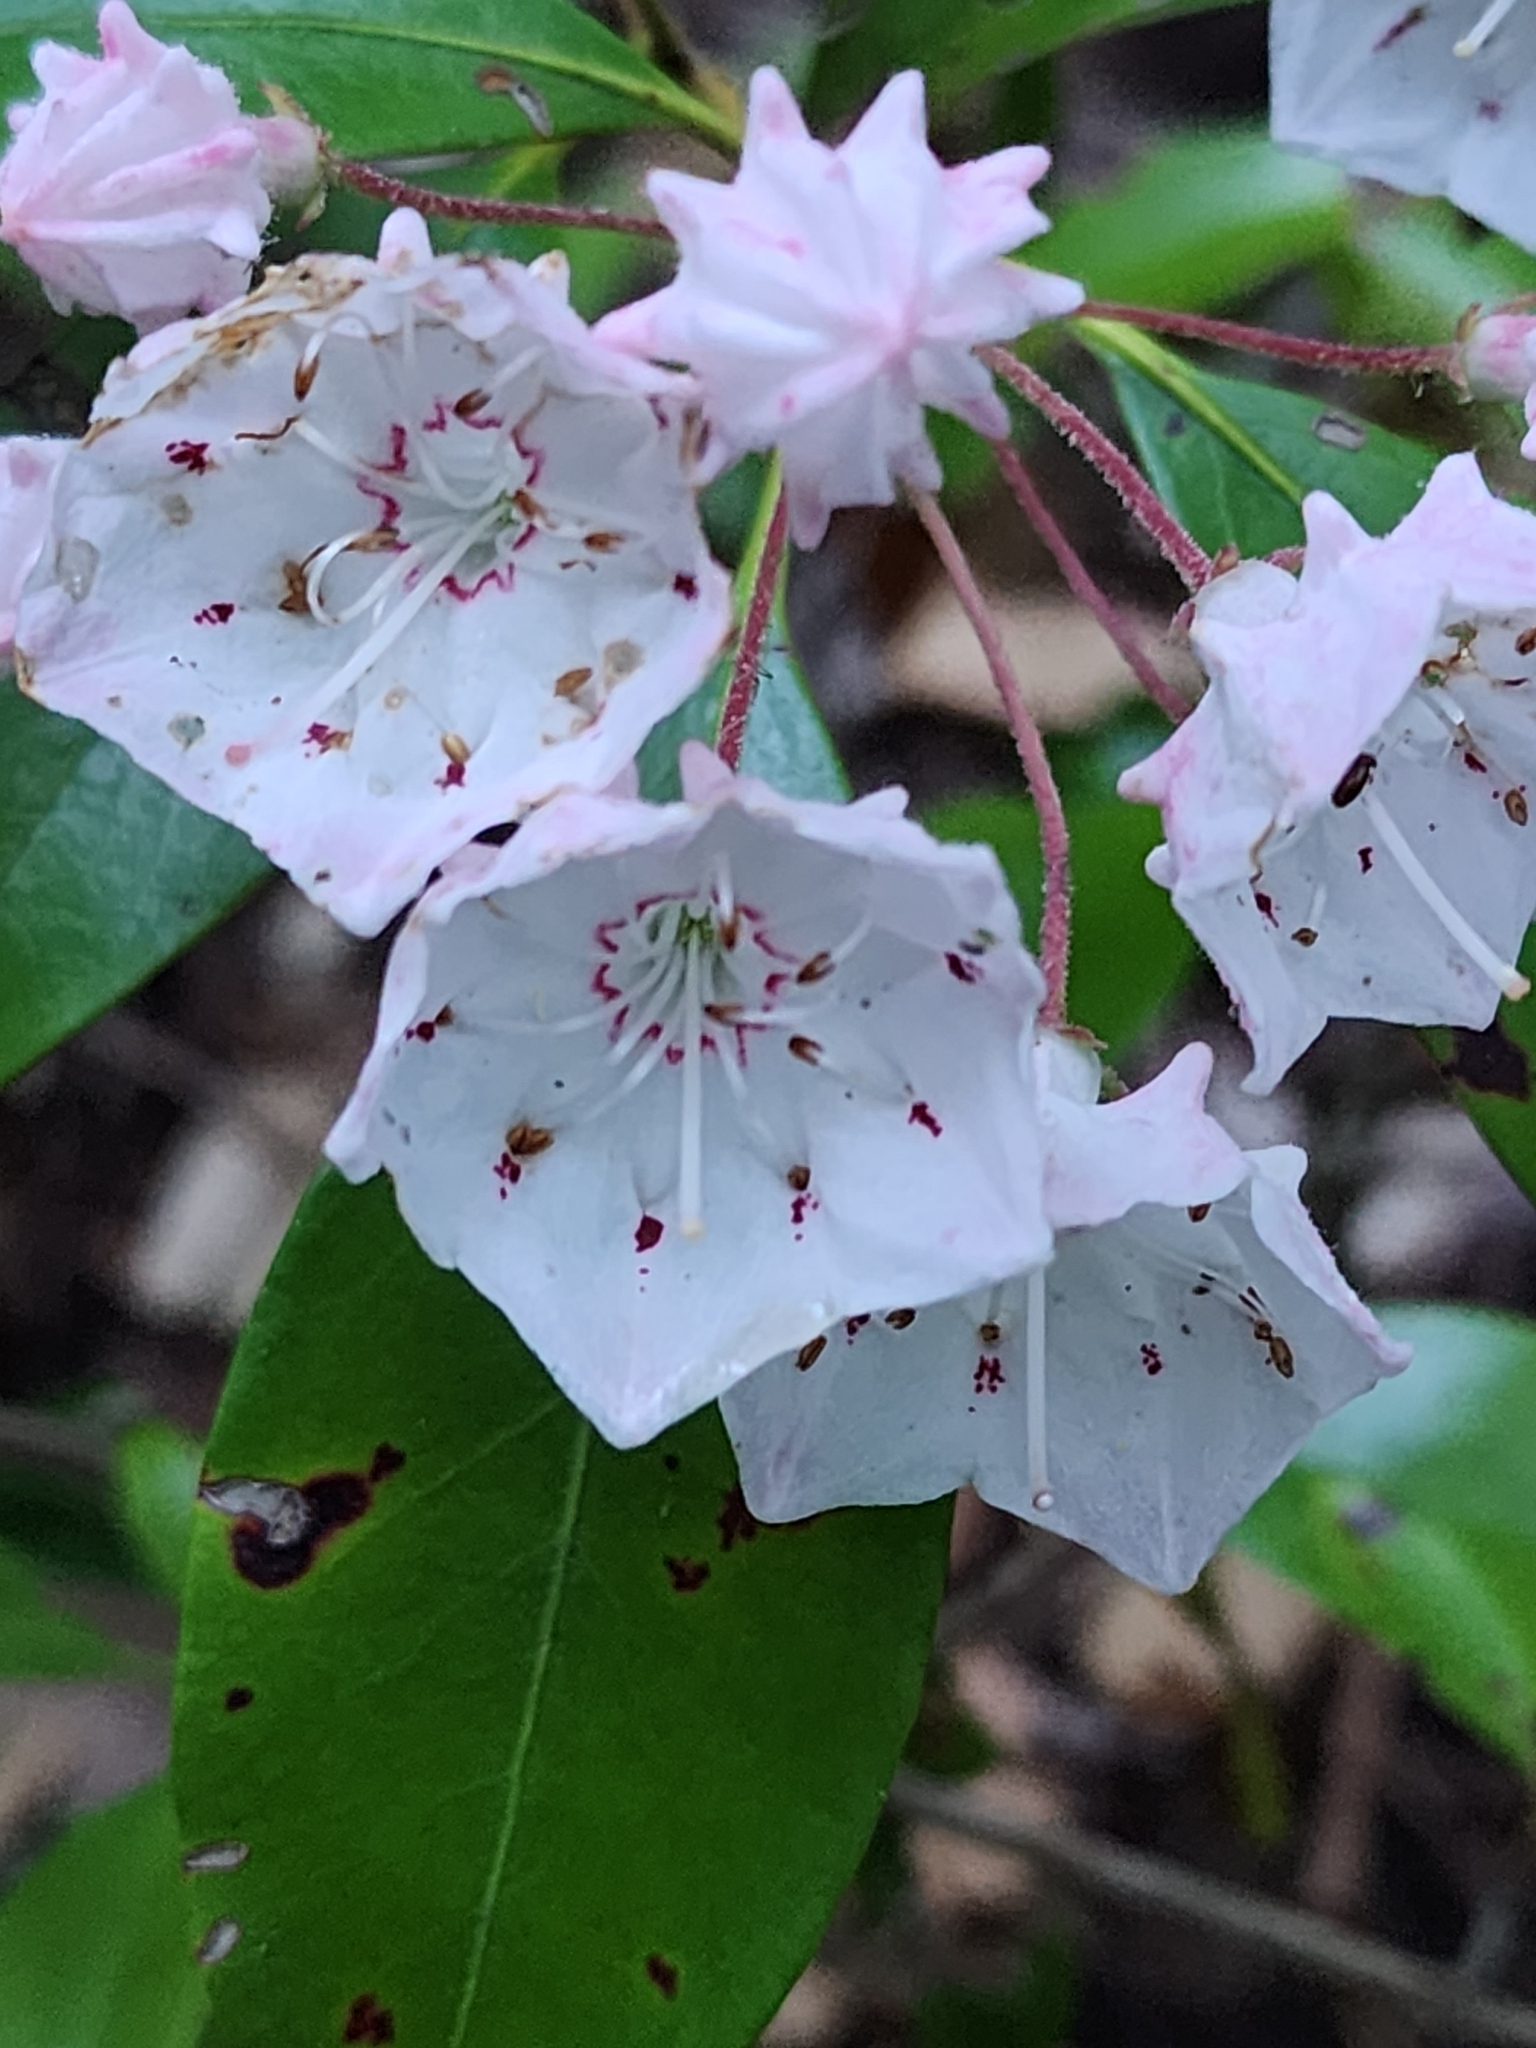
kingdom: Plantae
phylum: Tracheophyta
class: Magnoliopsida
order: Ericales
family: Ericaceae
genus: Kalmia
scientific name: Kalmia latifolia
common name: Mountain-laurel
